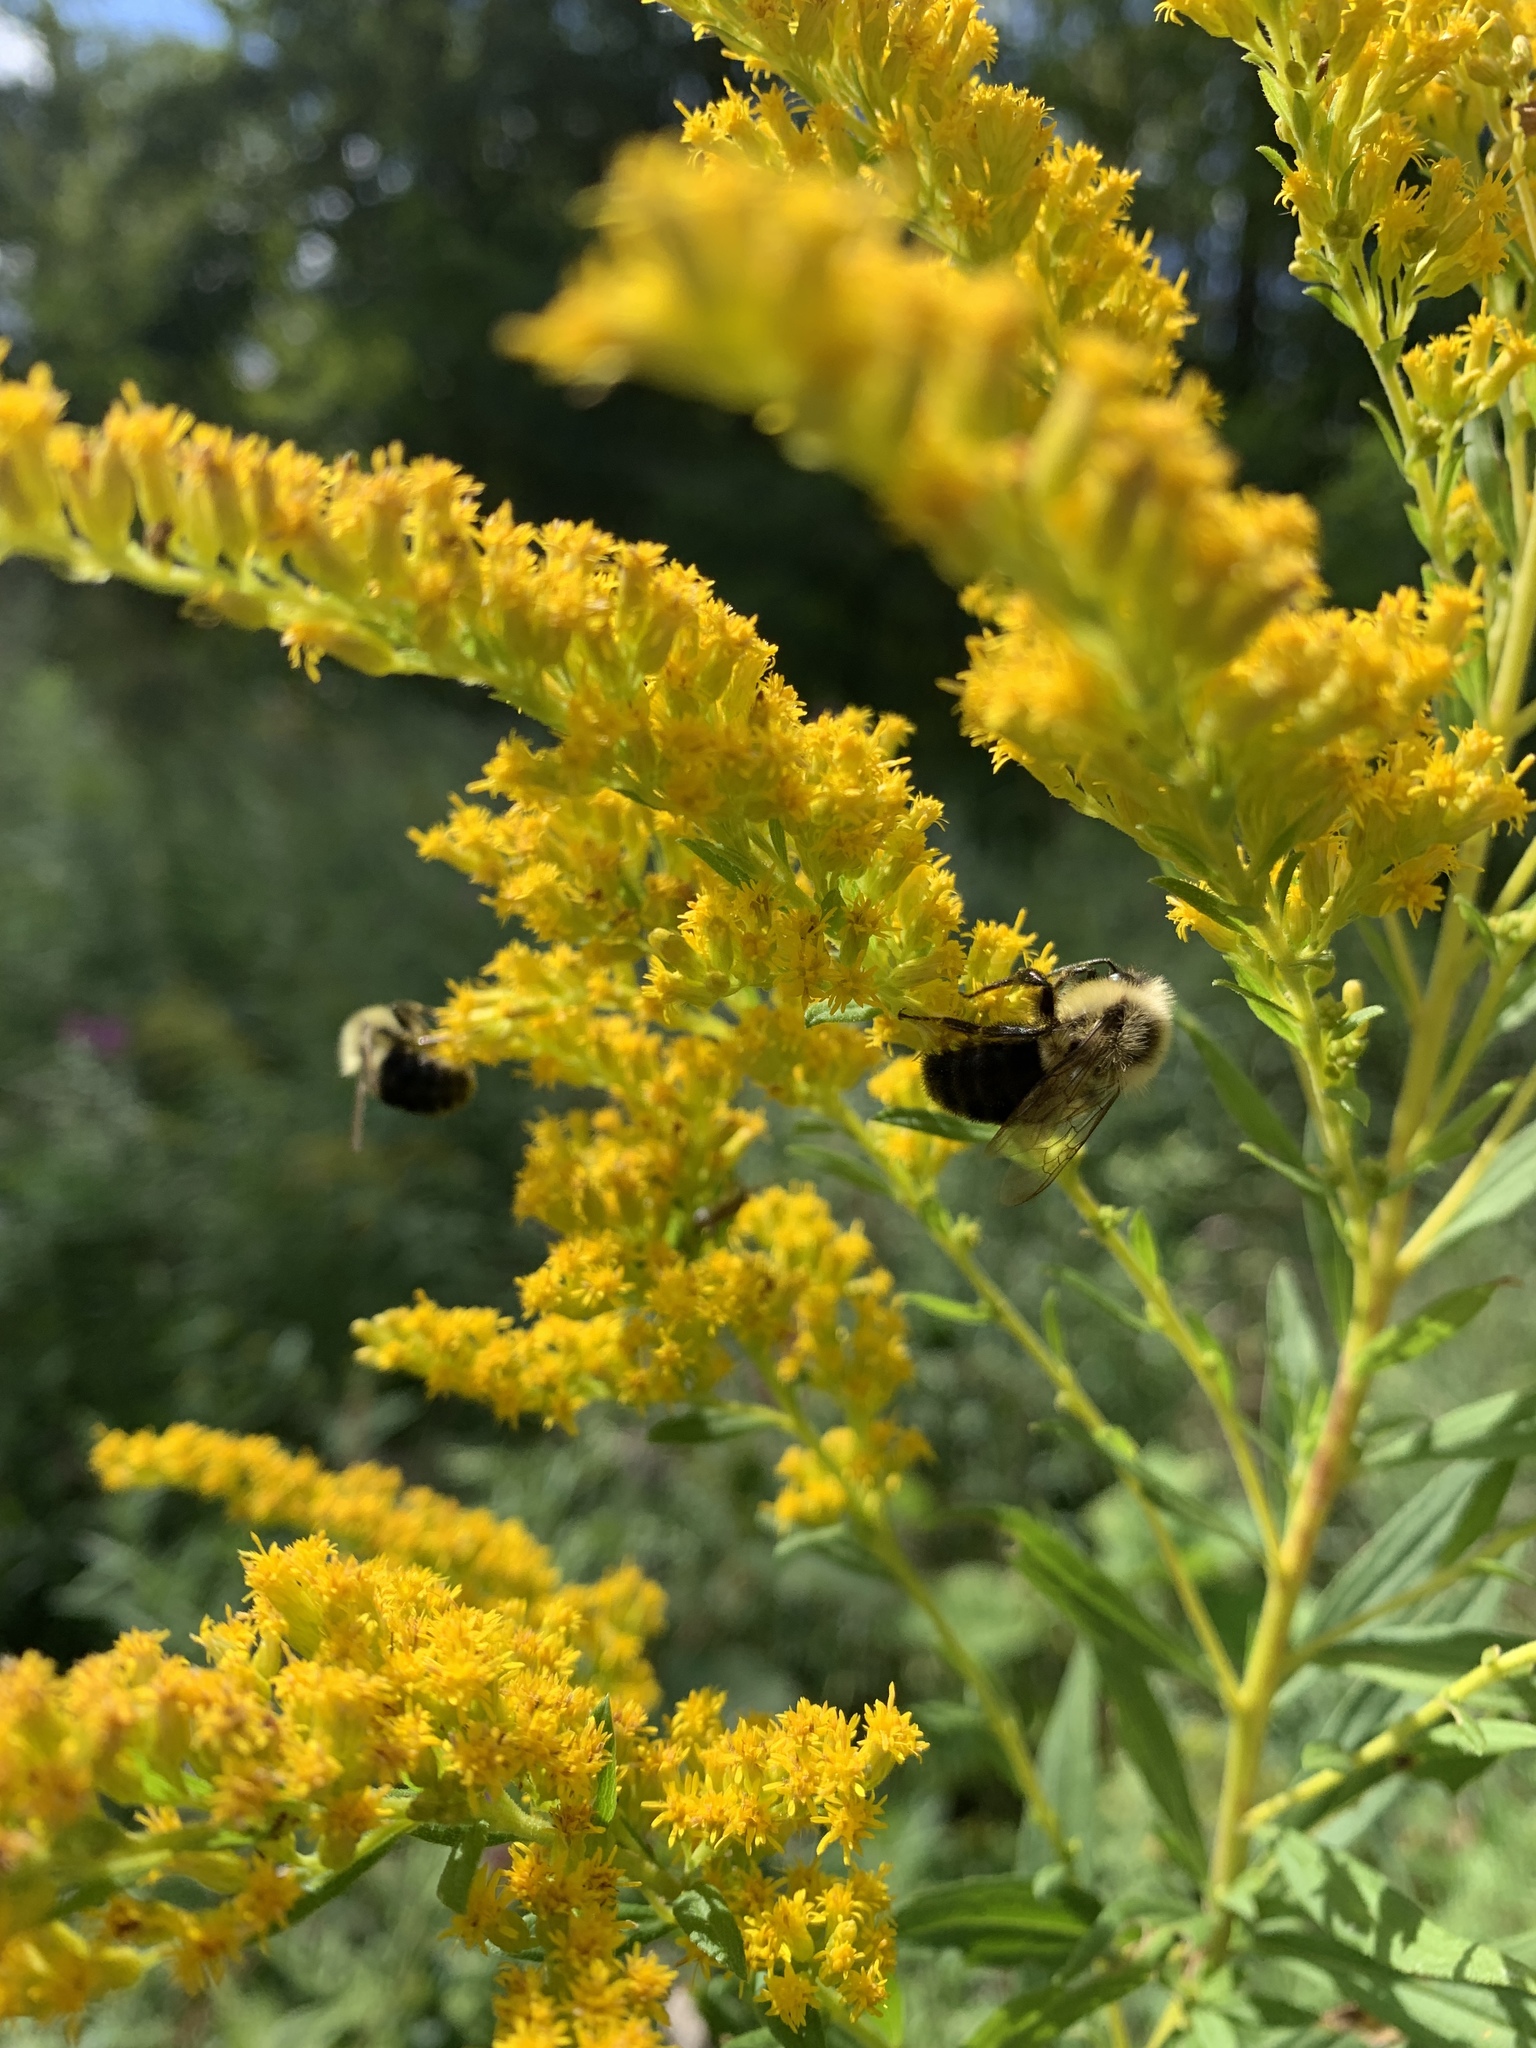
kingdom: Animalia
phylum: Arthropoda
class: Insecta
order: Hymenoptera
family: Apidae
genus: Bombus
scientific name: Bombus impatiens
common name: Common eastern bumble bee
